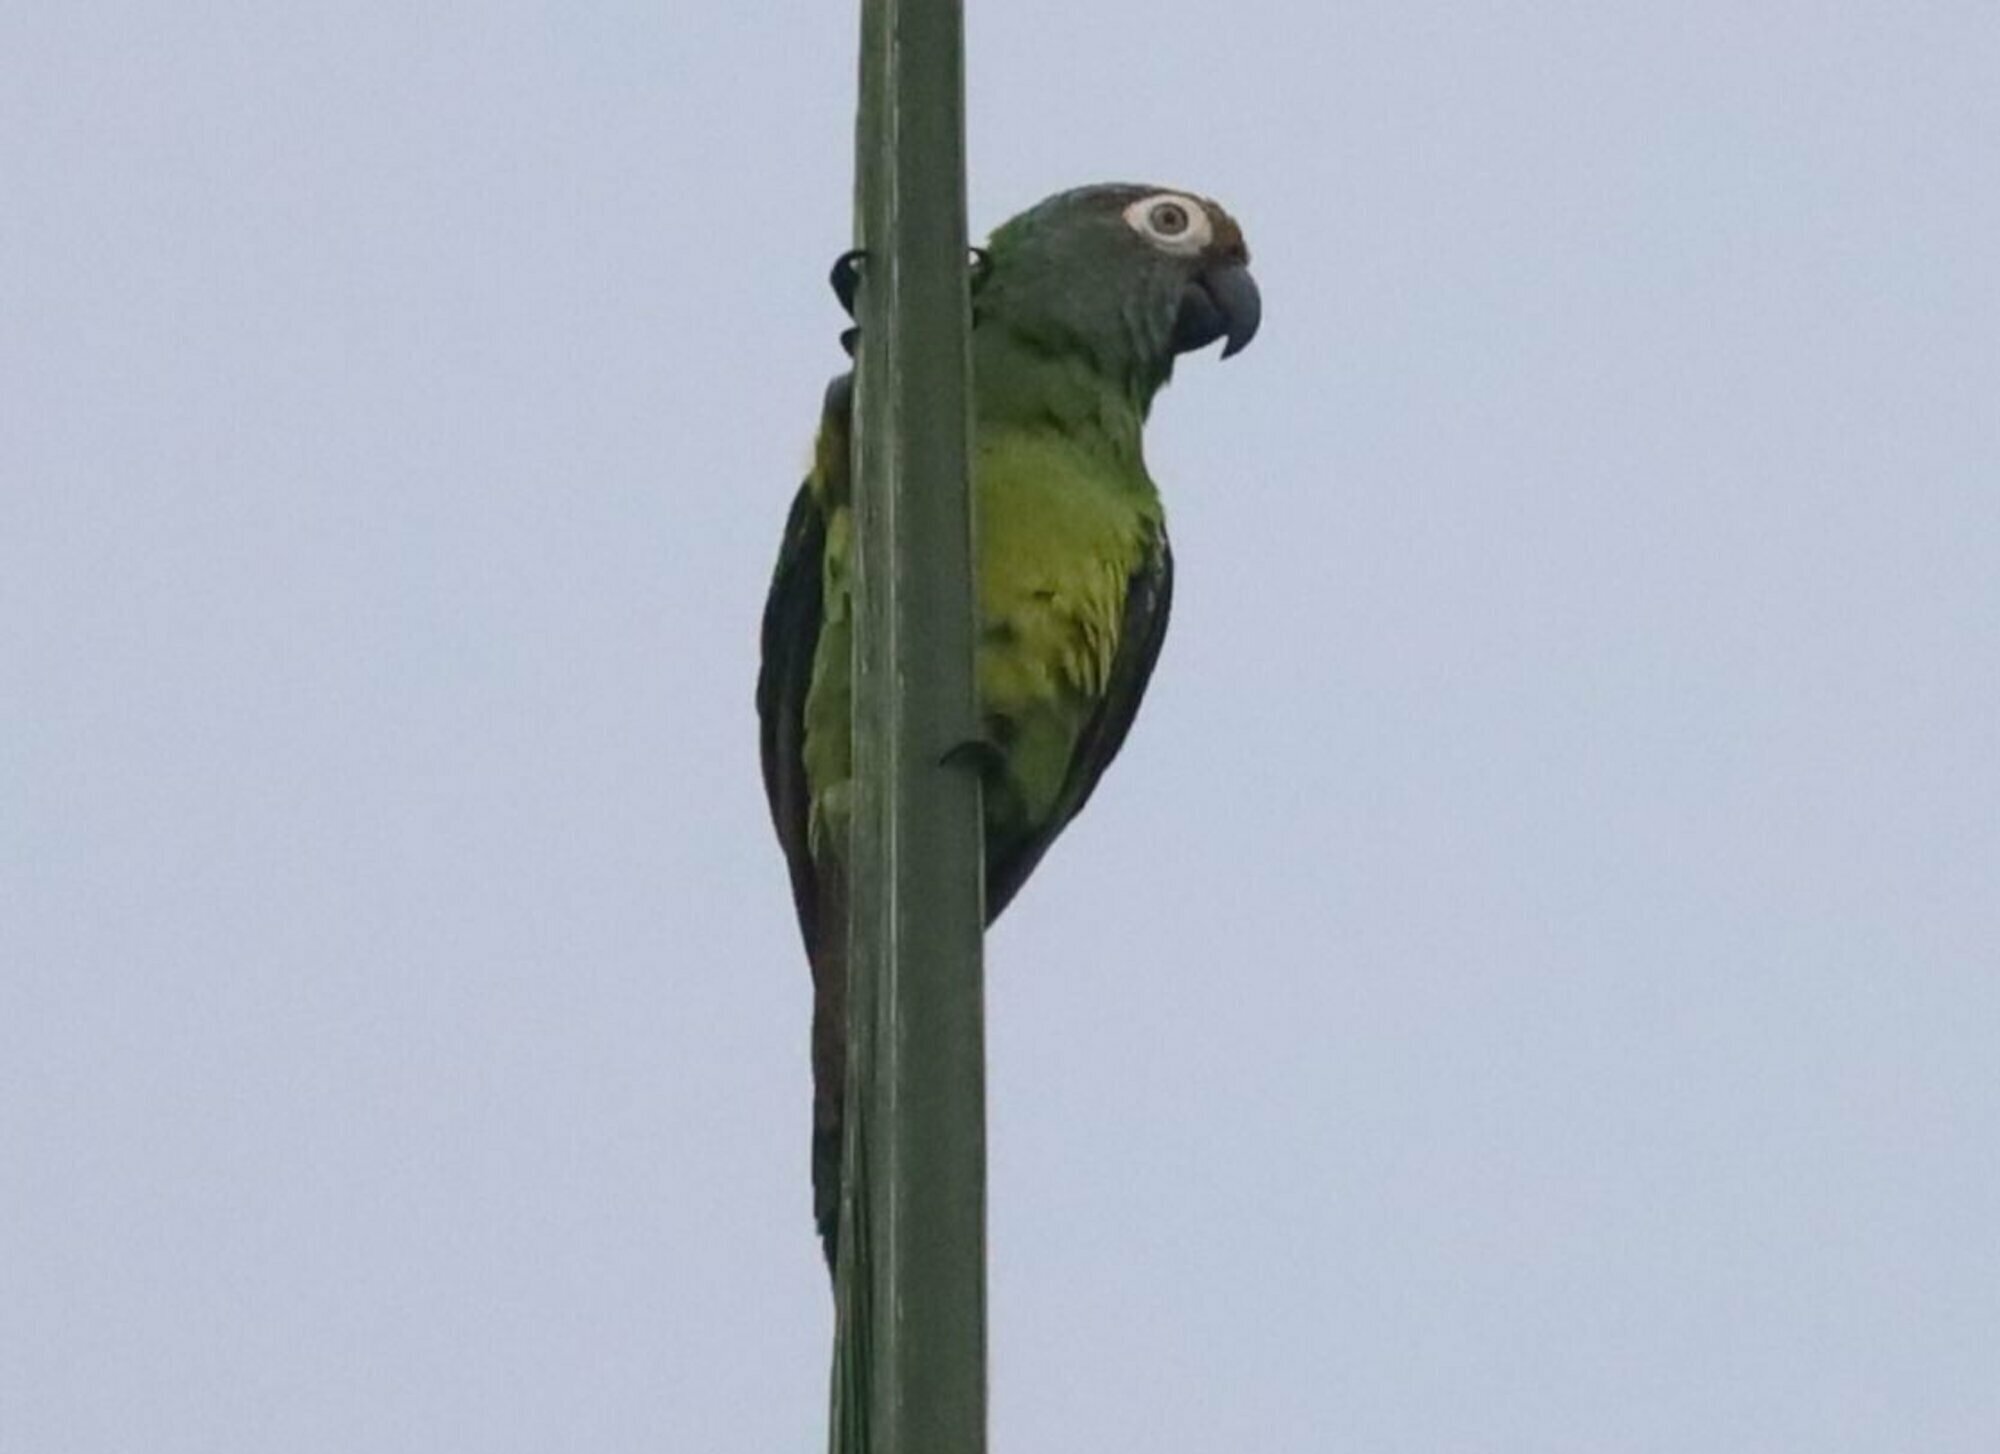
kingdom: Animalia
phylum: Chordata
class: Aves
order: Psittaciformes
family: Psittacidae
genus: Aratinga
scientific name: Aratinga weddellii
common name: Dusky-headed parakeet
